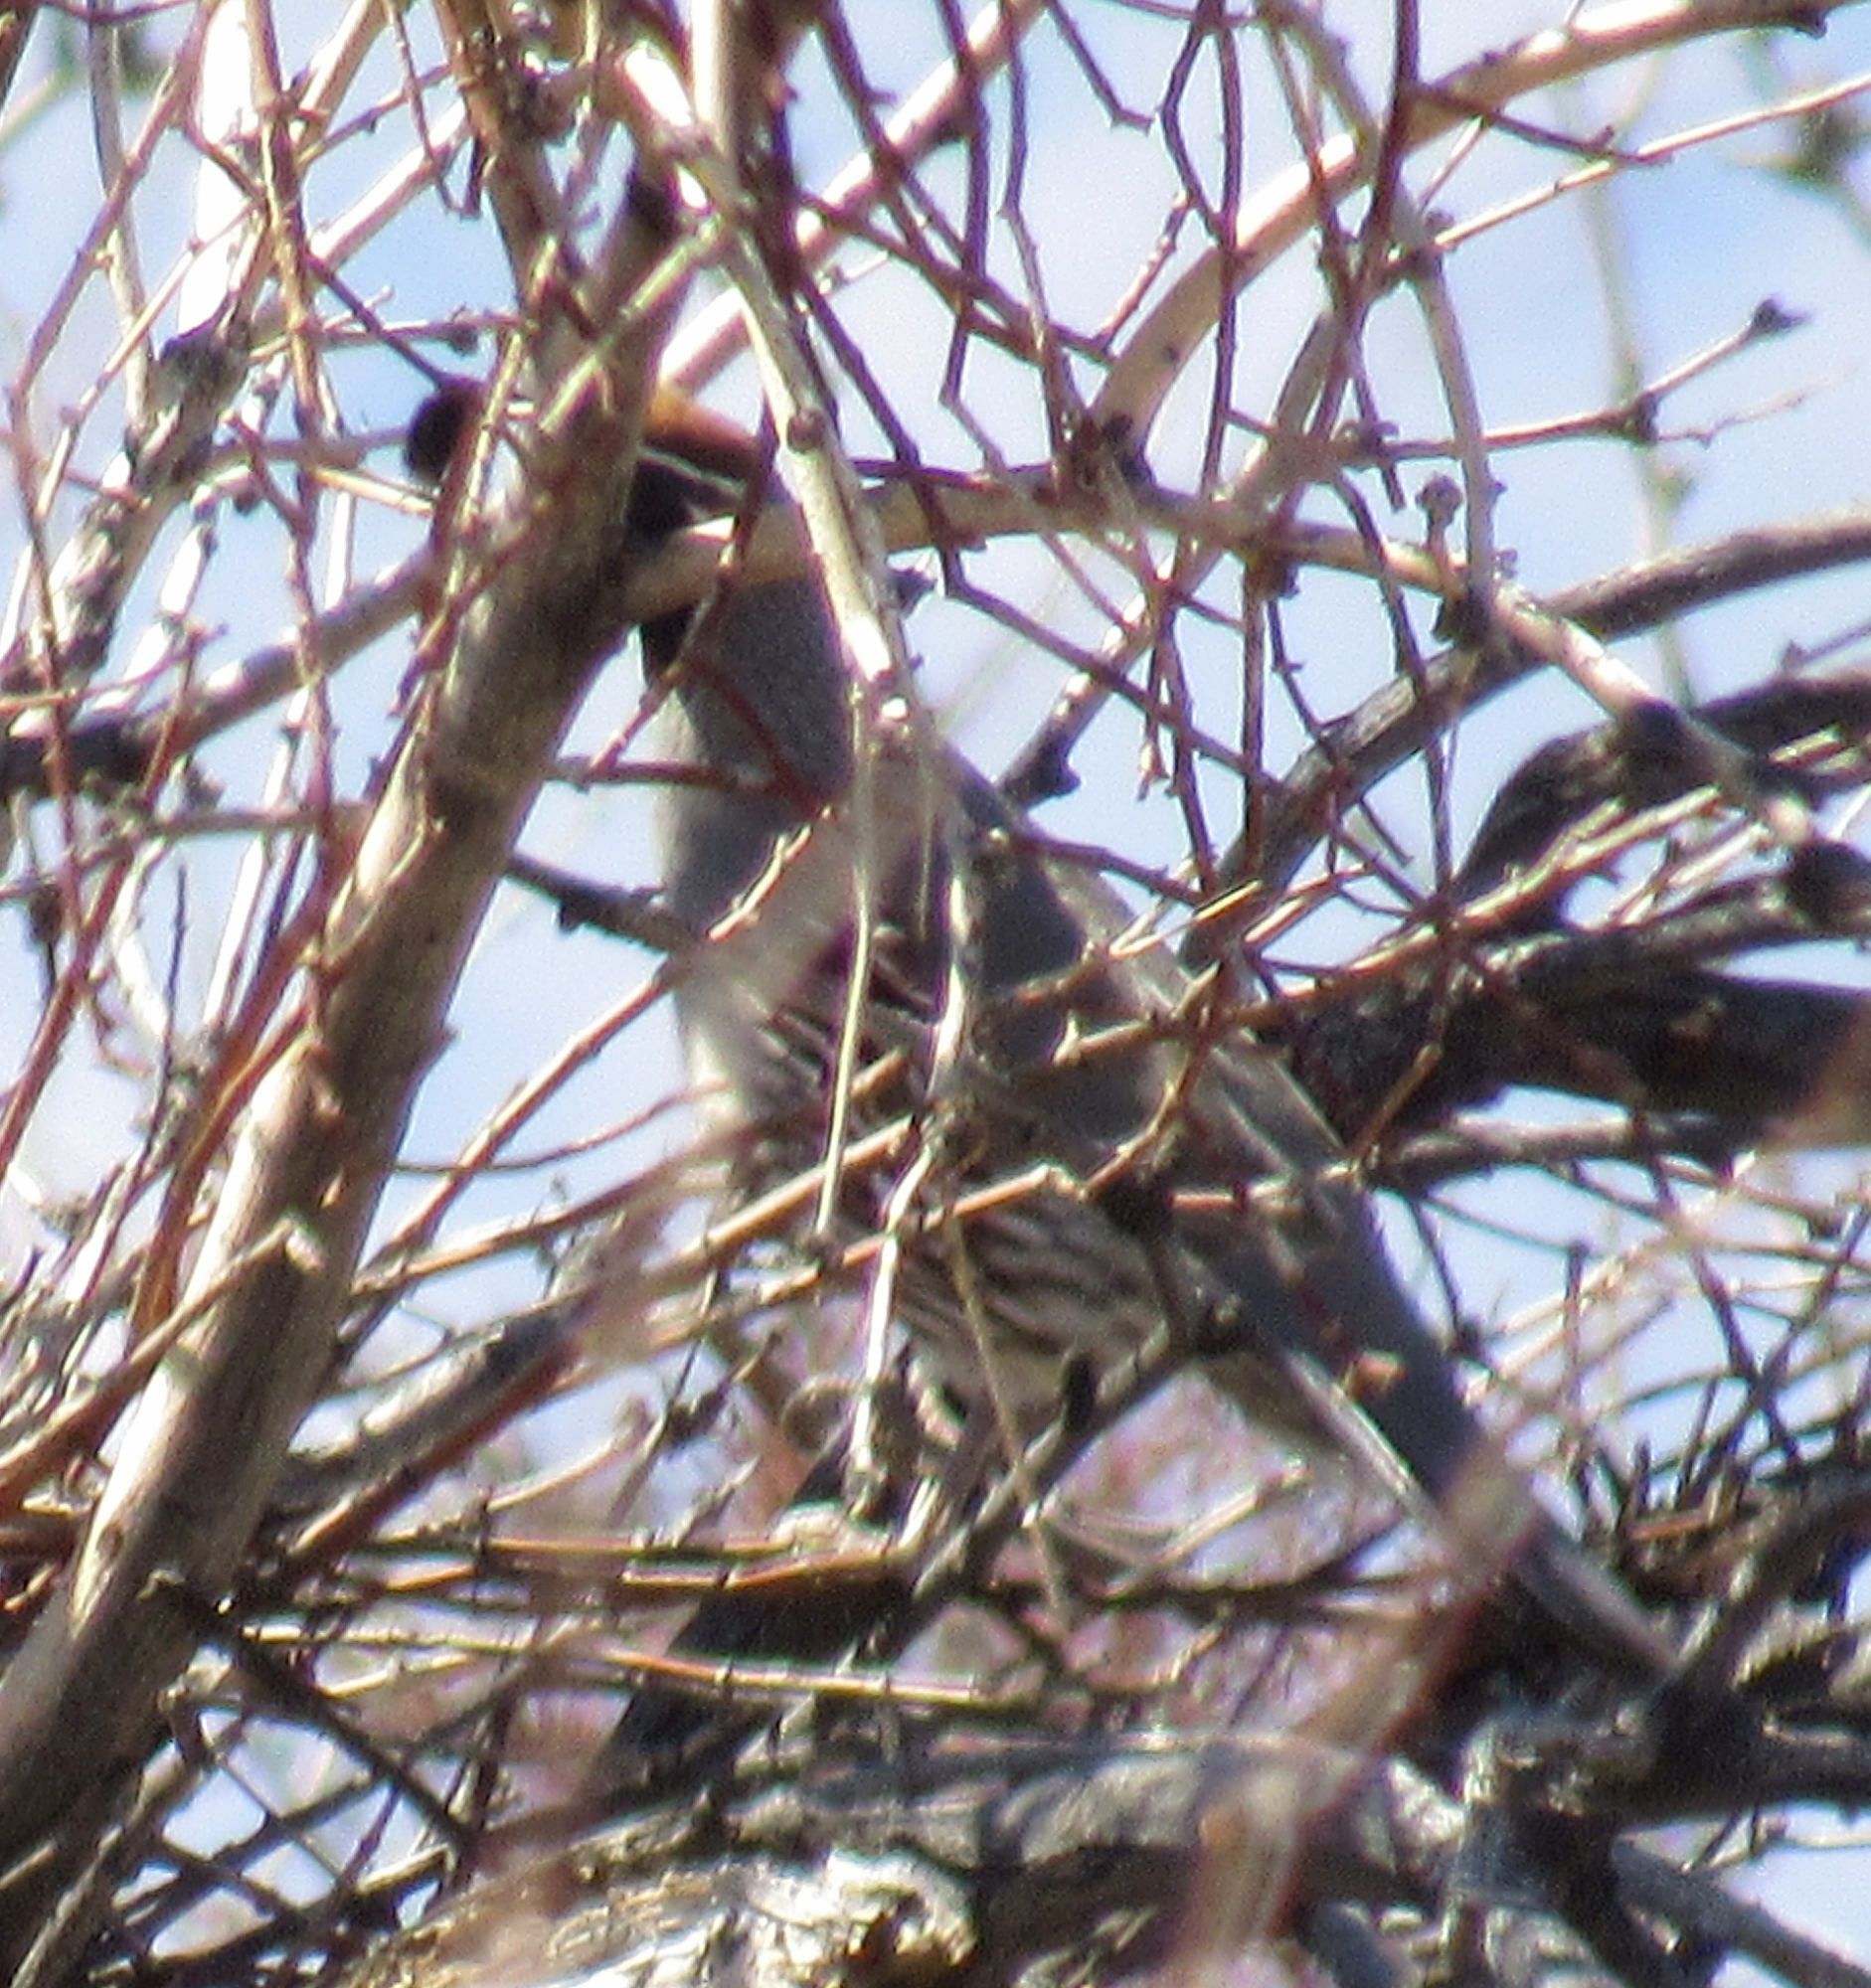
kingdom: Animalia
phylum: Chordata
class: Aves
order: Galliformes
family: Odontophoridae
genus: Callipepla
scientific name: Callipepla gambelii
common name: Gambel's quail
